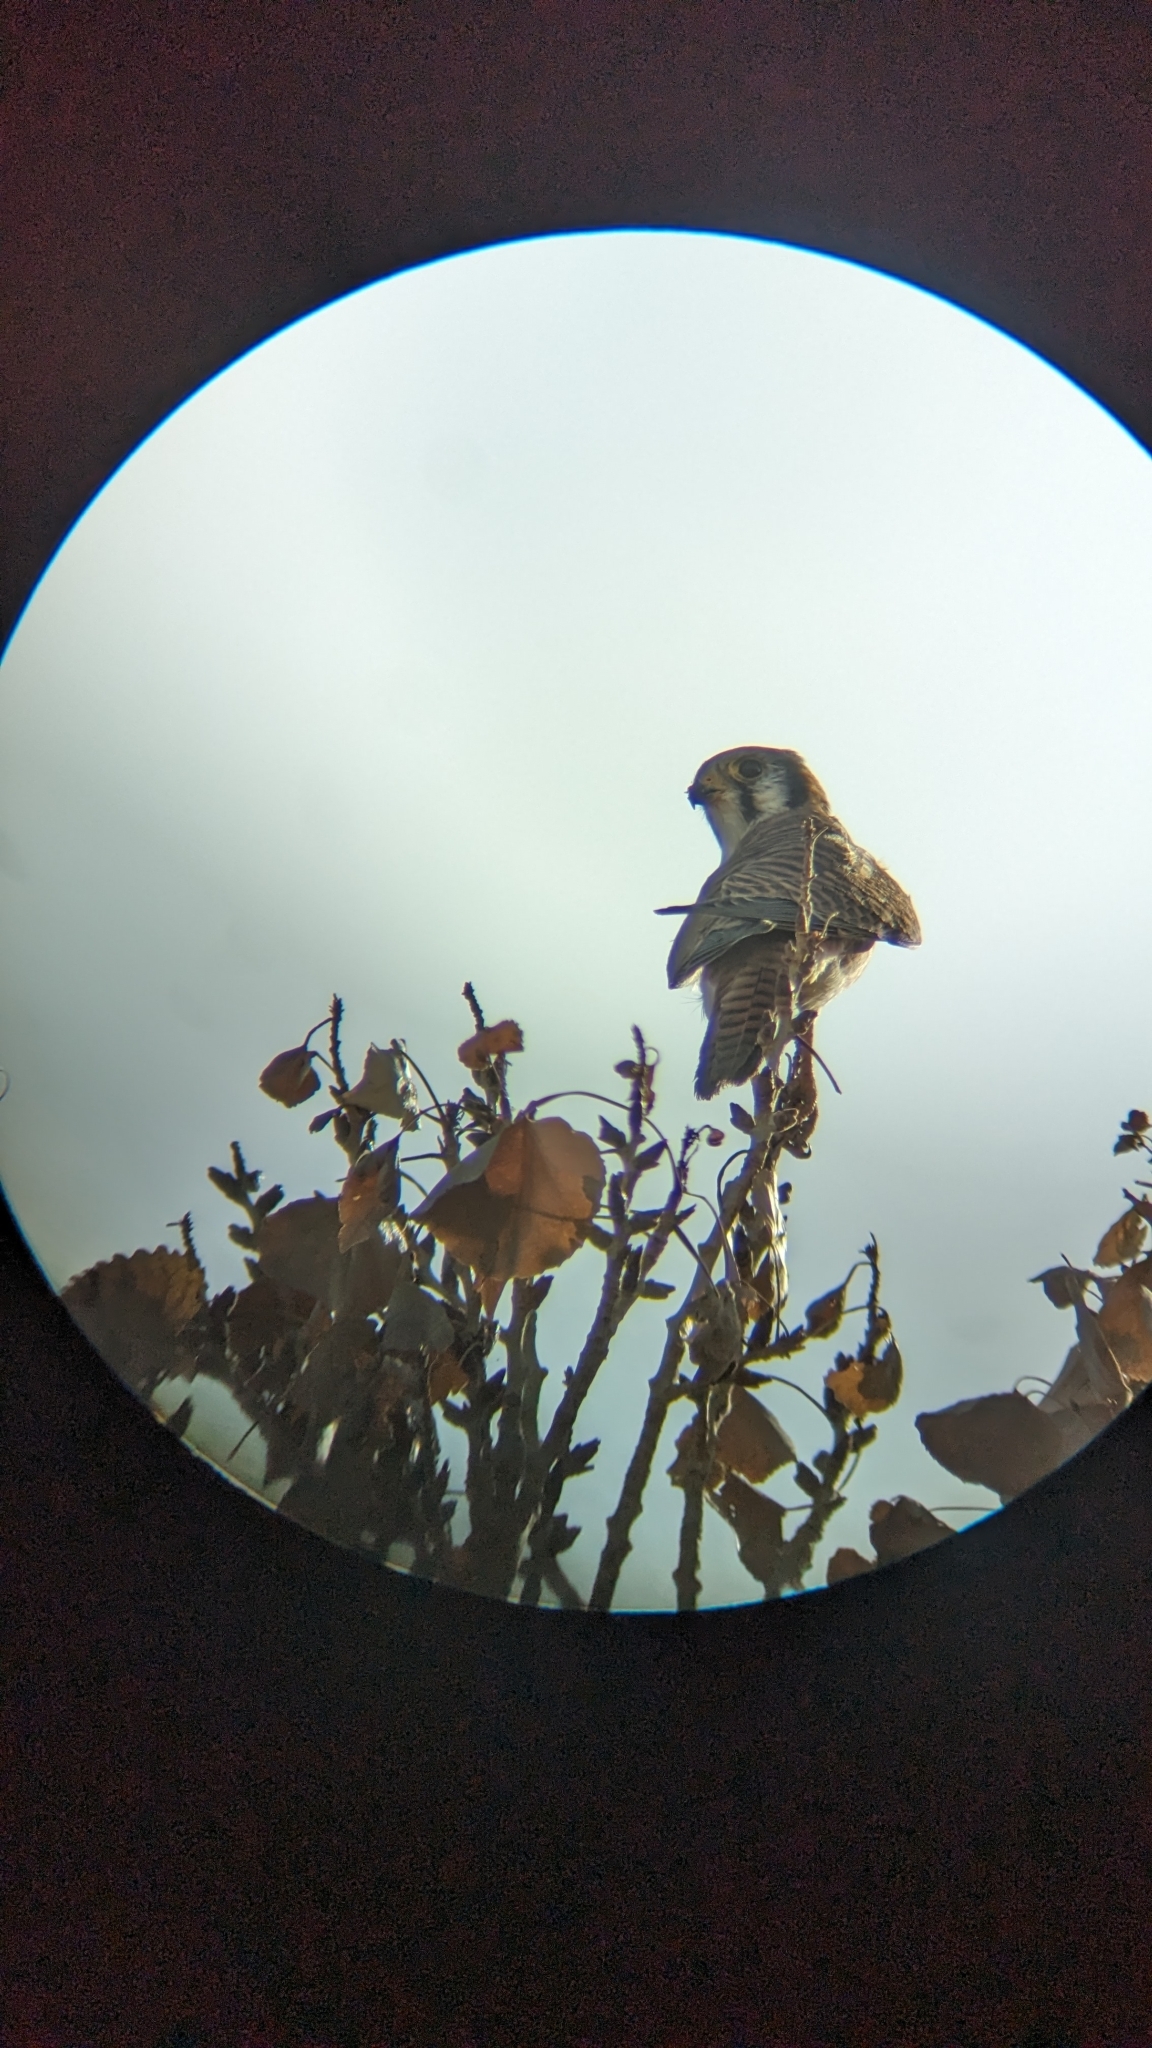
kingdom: Animalia
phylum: Chordata
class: Aves
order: Falconiformes
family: Falconidae
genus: Falco
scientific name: Falco sparverius
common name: American kestrel
